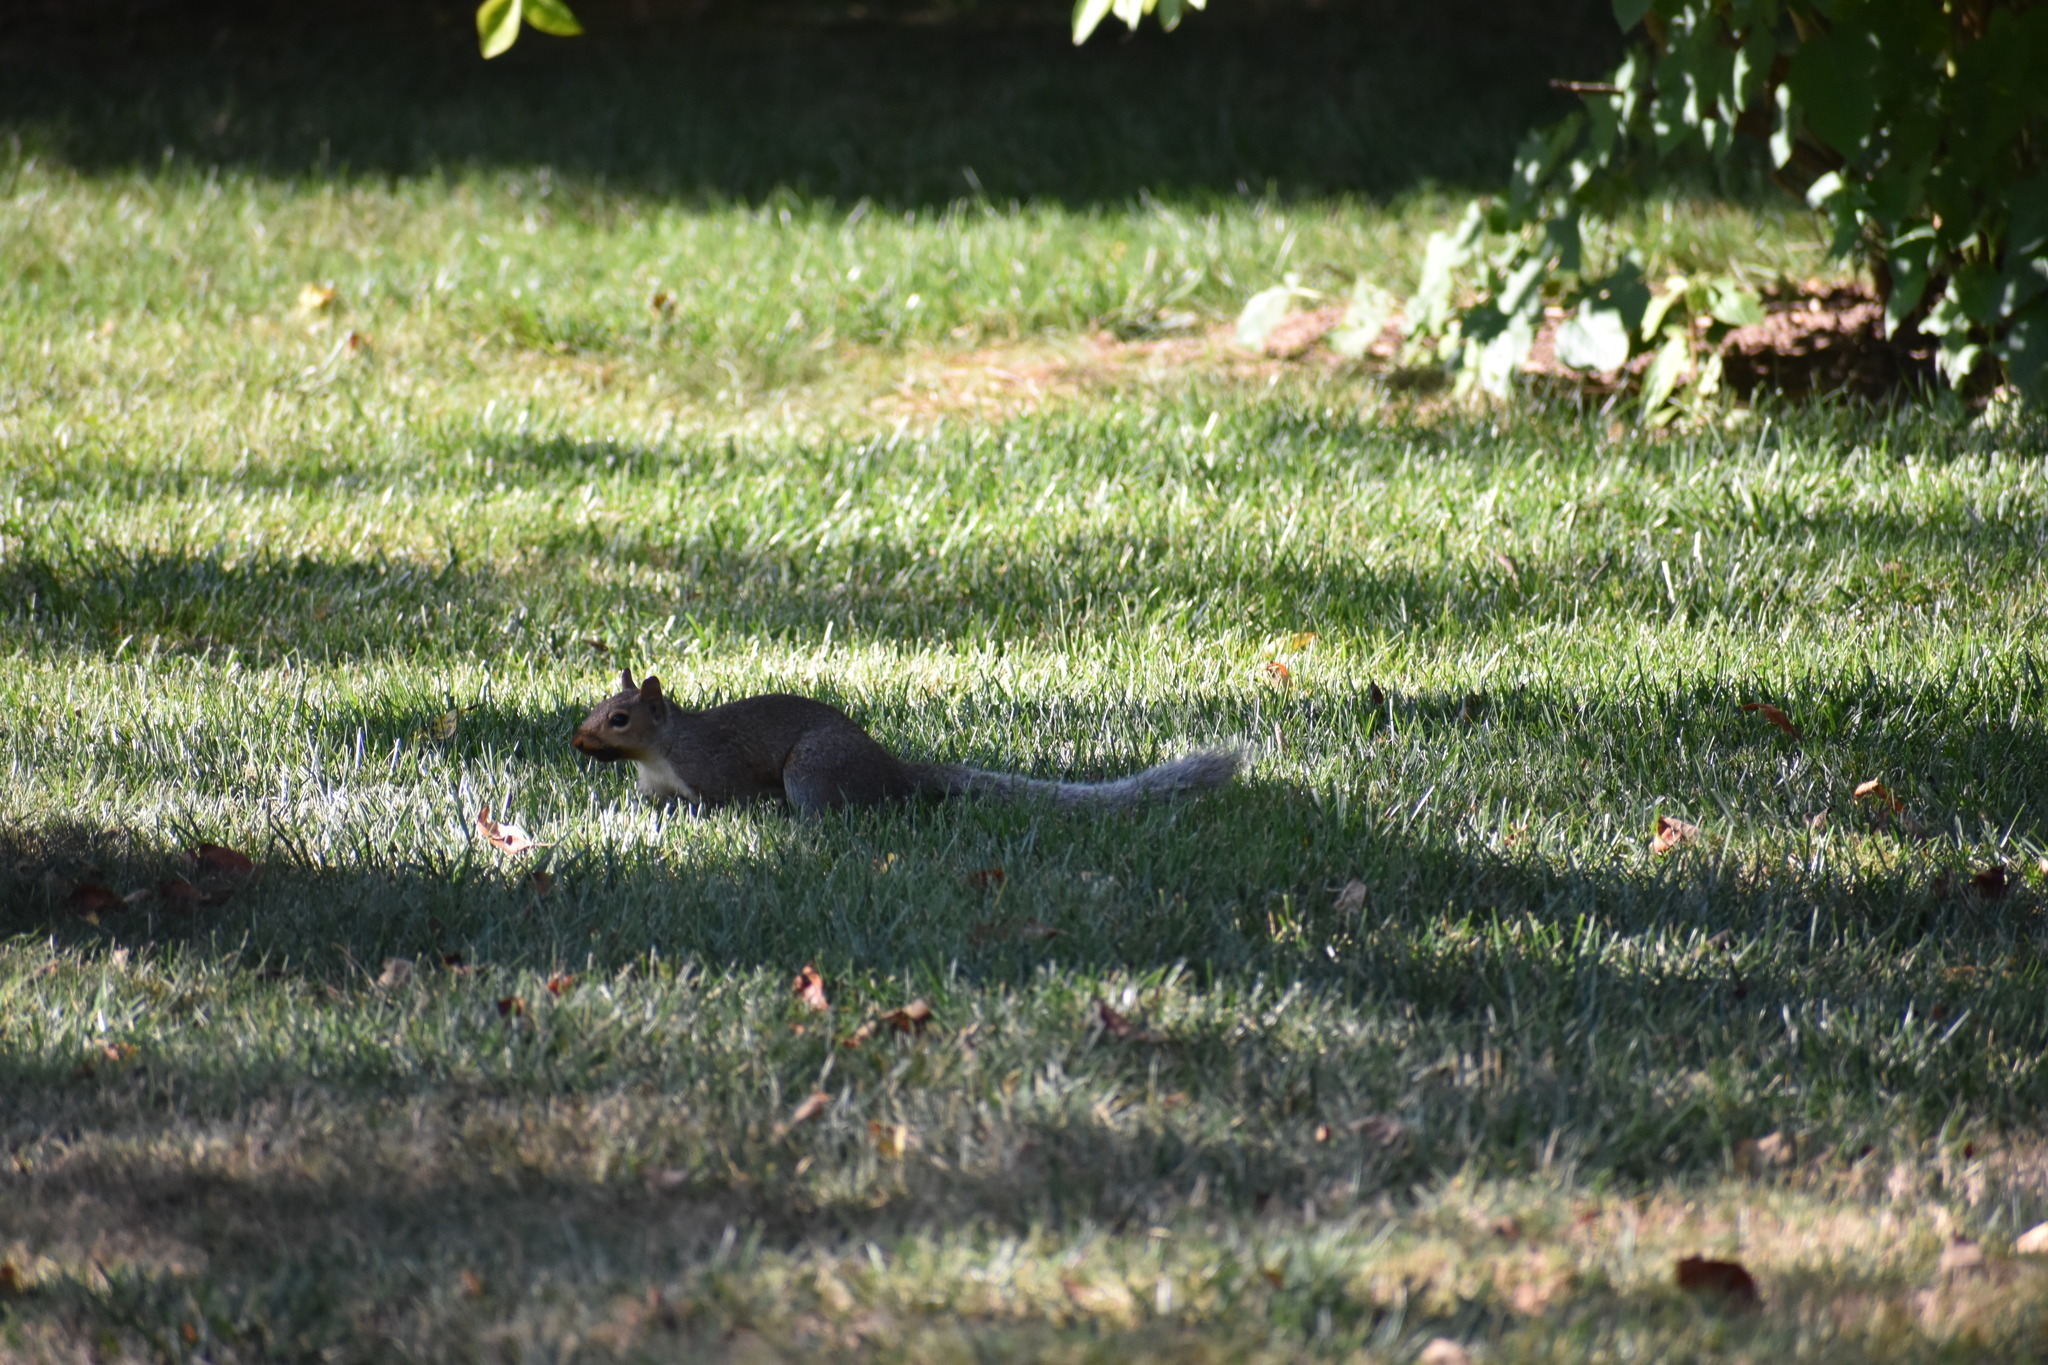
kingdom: Animalia
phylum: Chordata
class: Mammalia
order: Rodentia
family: Sciuridae
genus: Sciurus
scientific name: Sciurus carolinensis
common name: Eastern gray squirrel
